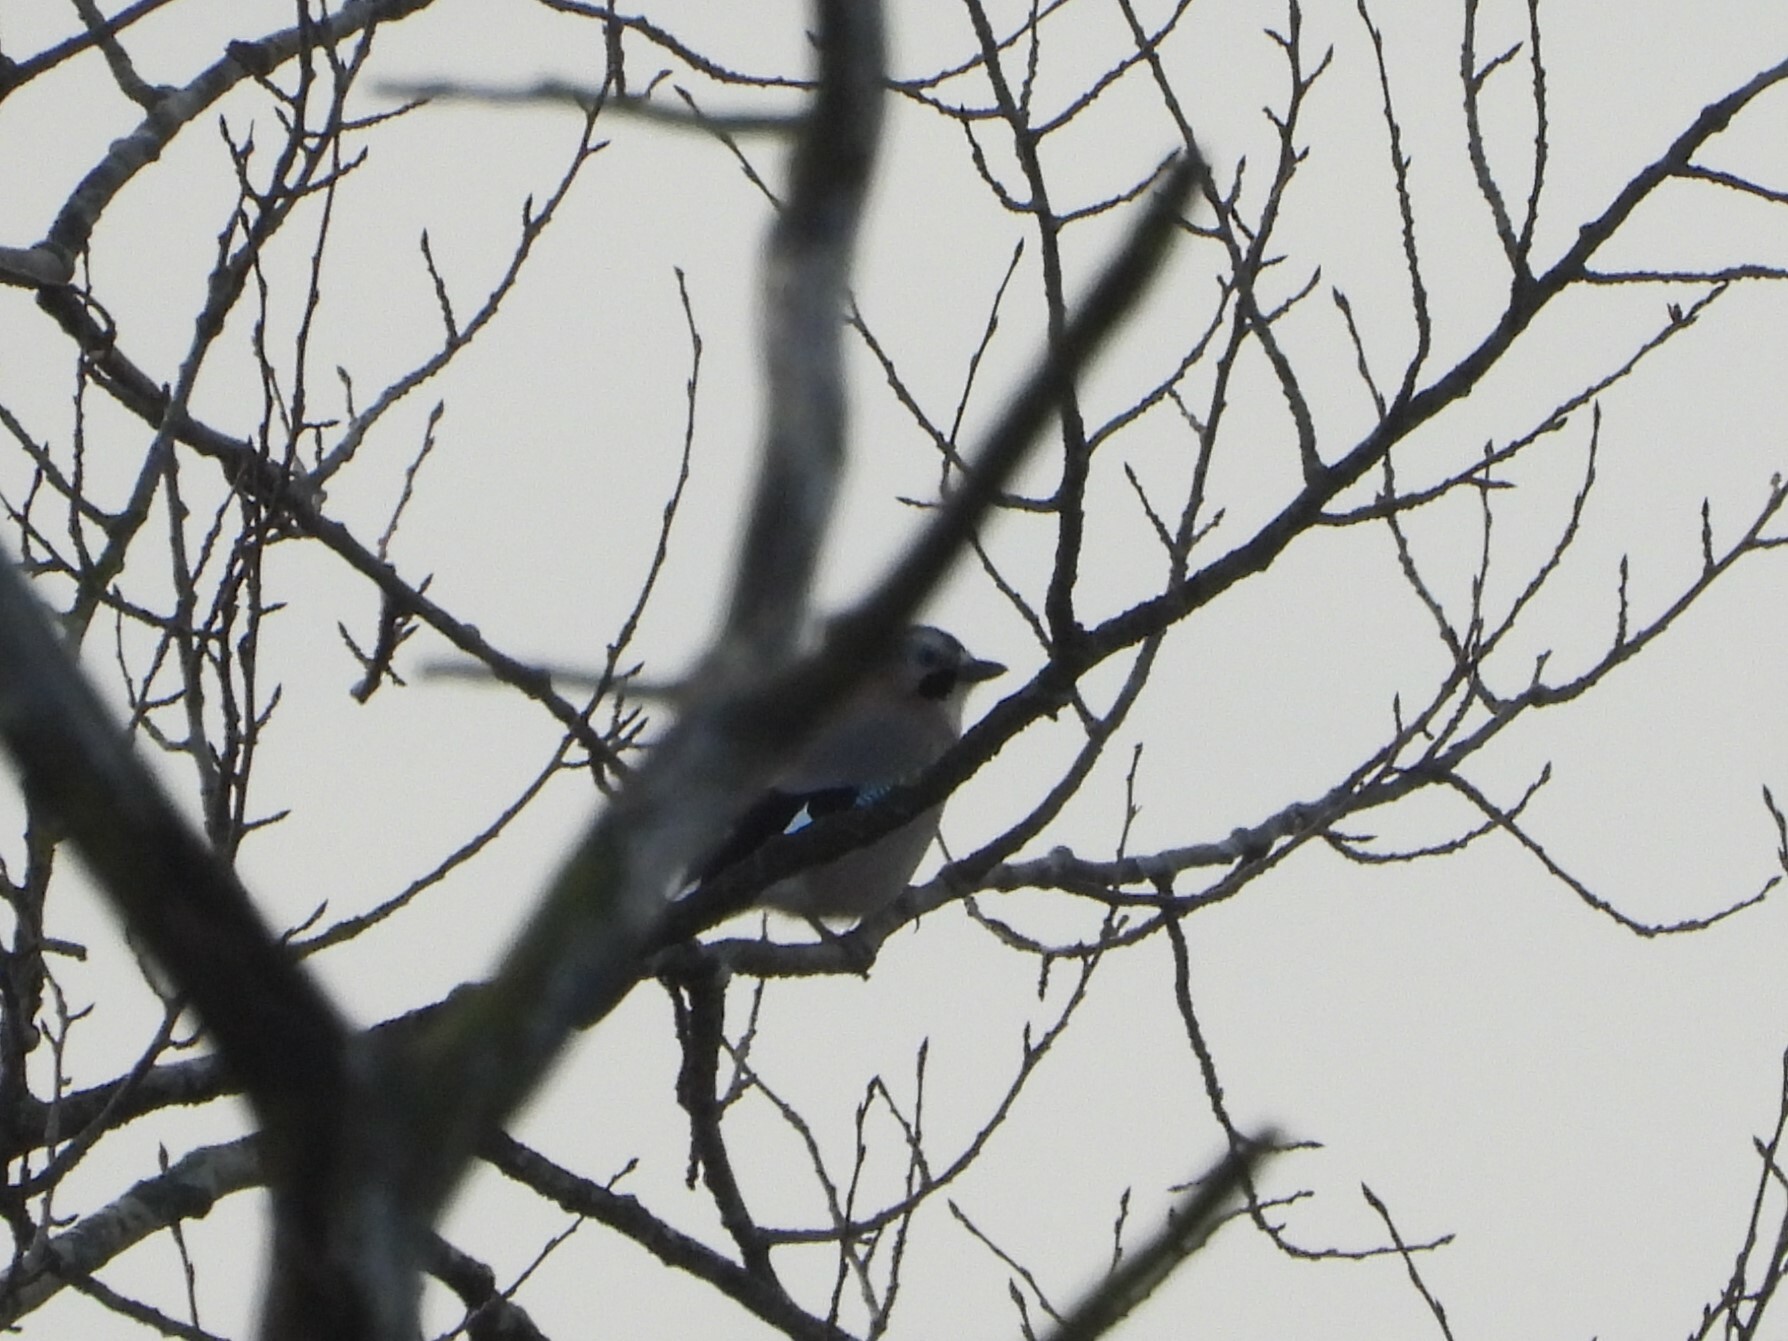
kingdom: Animalia
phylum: Chordata
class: Aves
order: Passeriformes
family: Corvidae
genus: Garrulus
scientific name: Garrulus glandarius
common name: Eurasian jay
